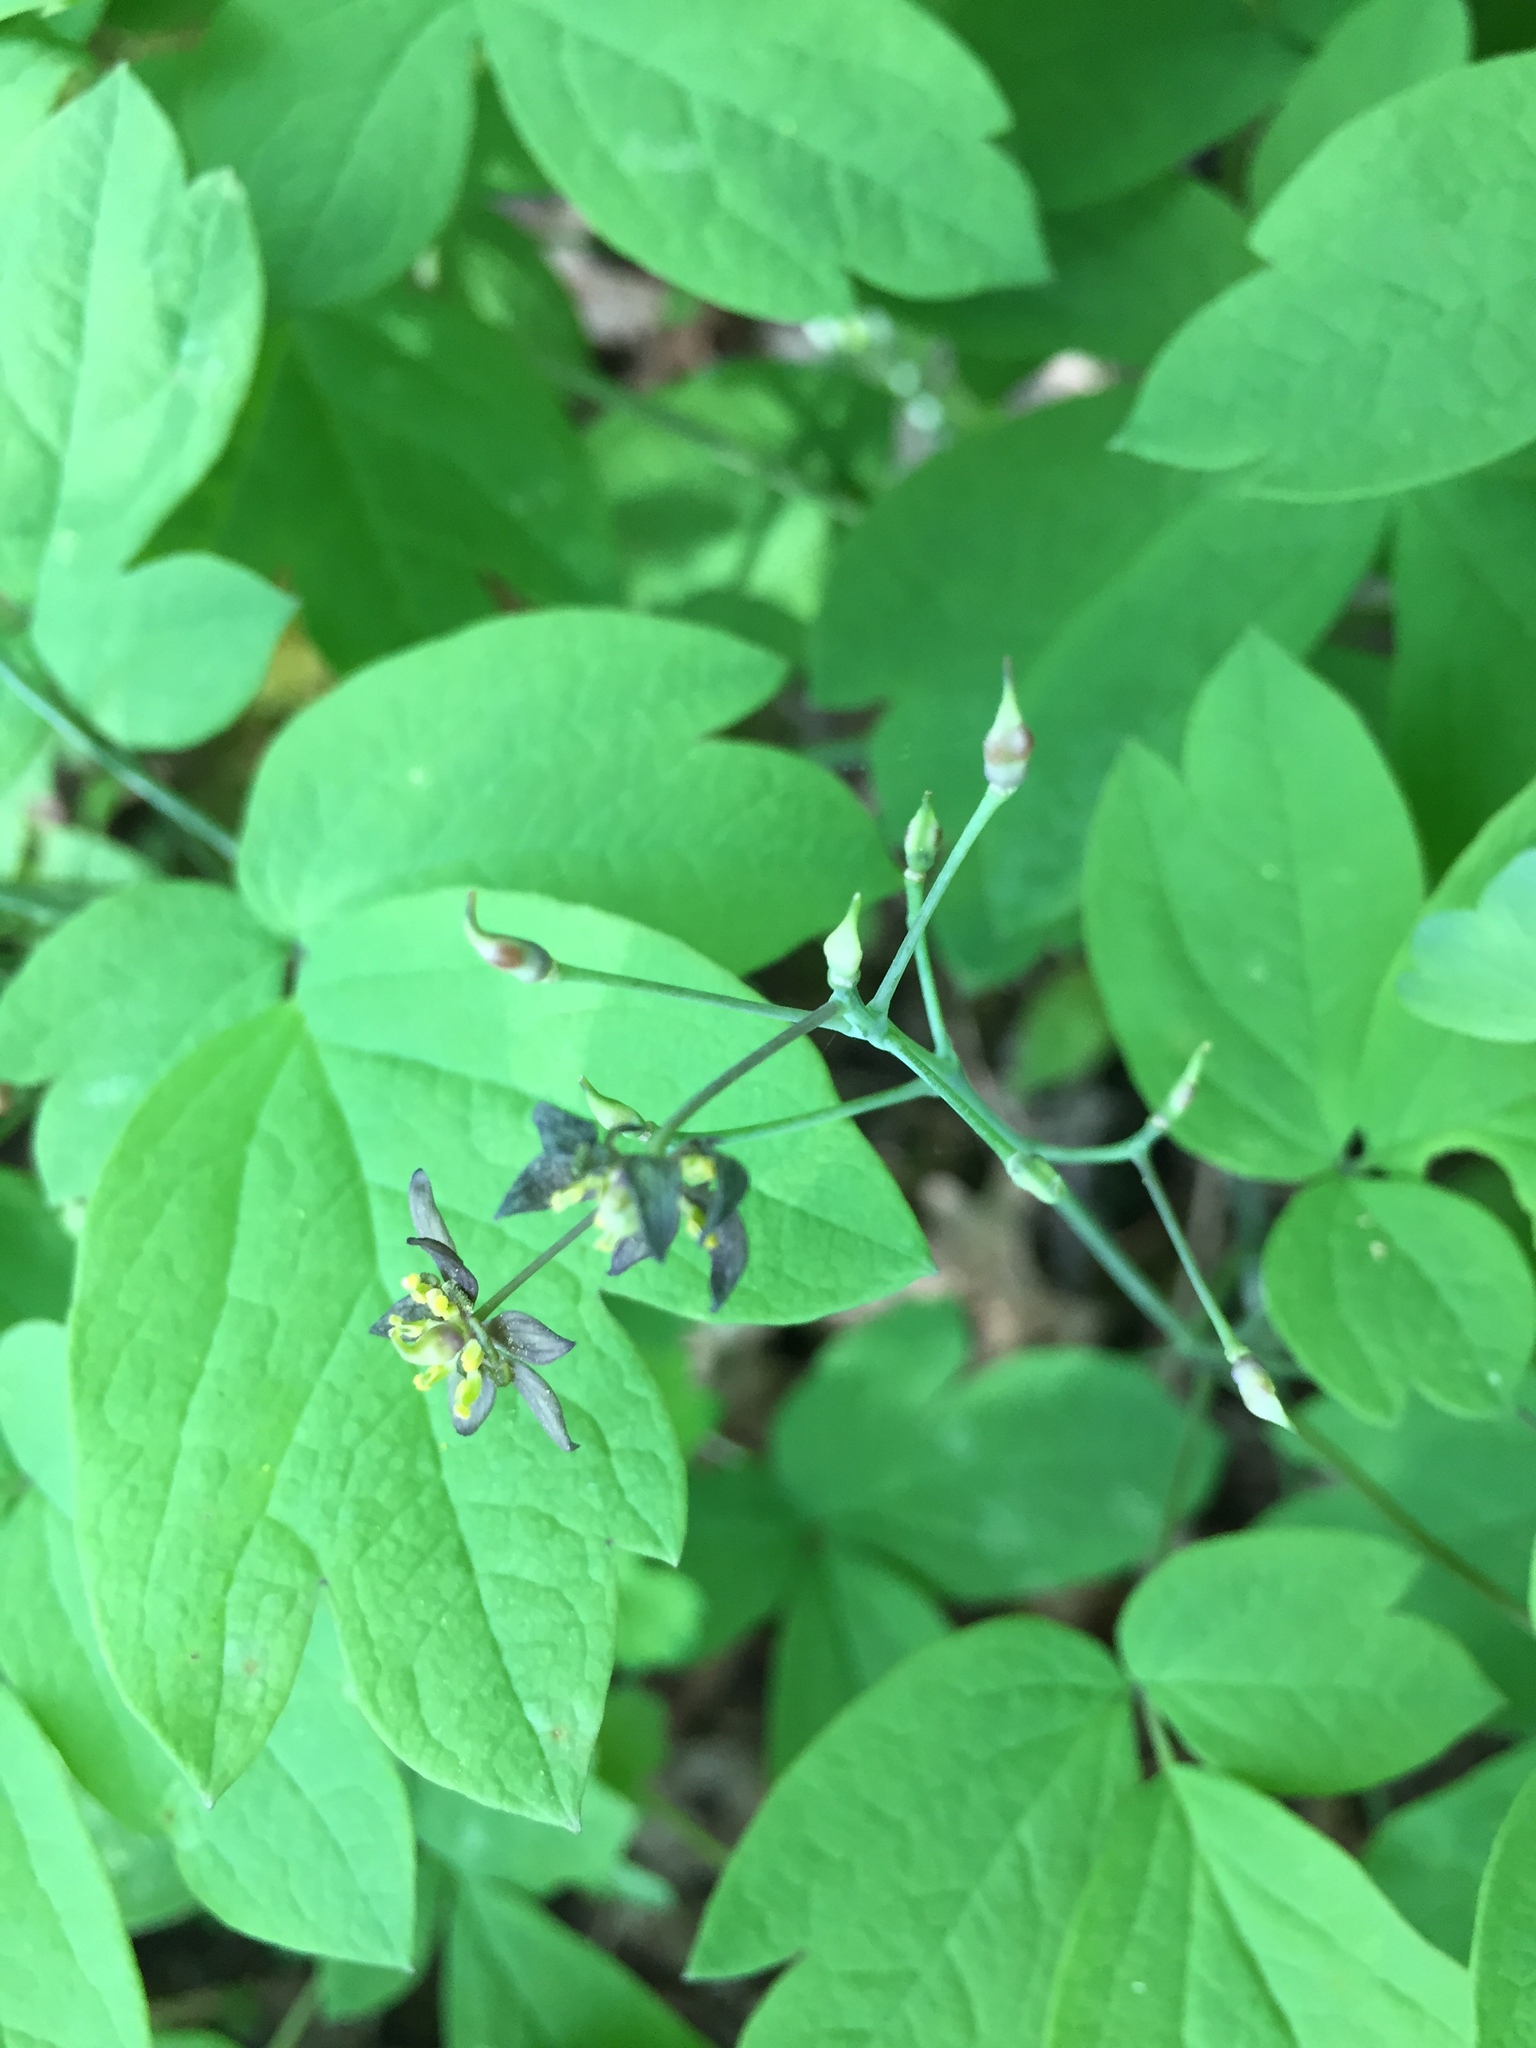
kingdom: Plantae
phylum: Tracheophyta
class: Magnoliopsida
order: Ranunculales
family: Berberidaceae
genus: Caulophyllum
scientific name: Caulophyllum giganteum
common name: Blue cohosh
